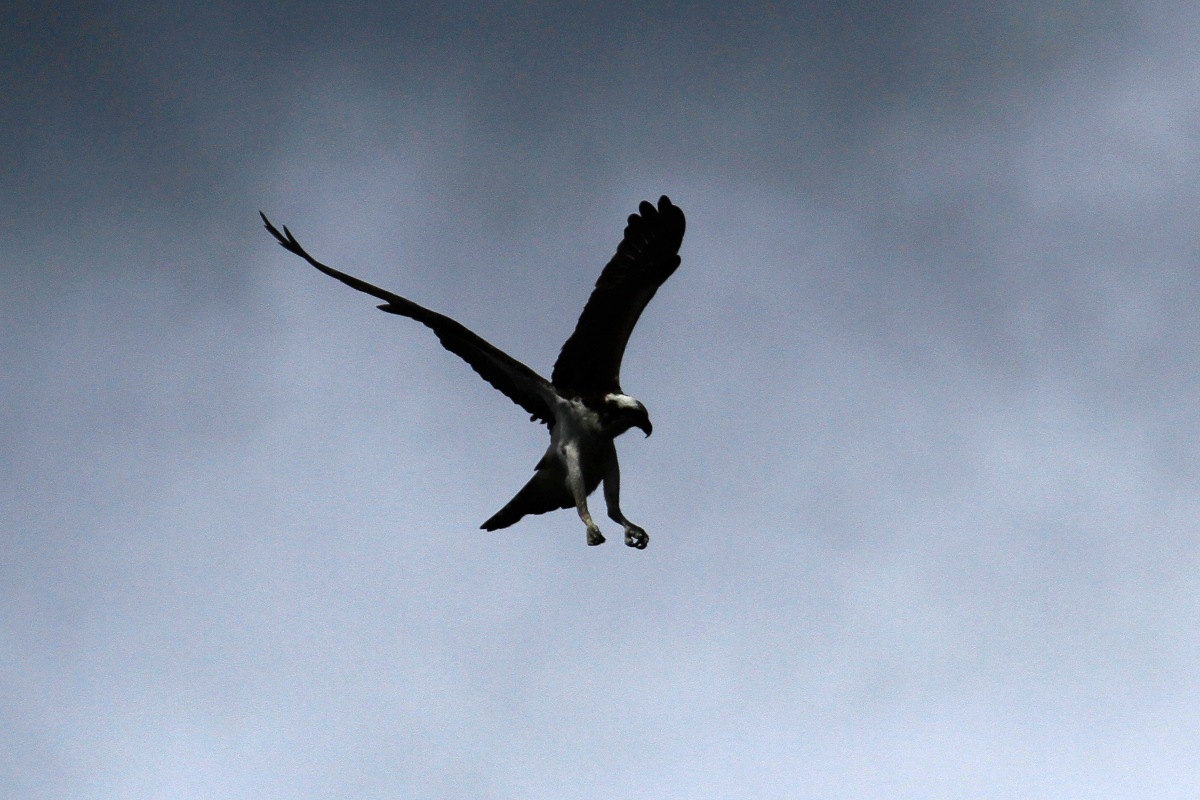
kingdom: Animalia
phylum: Chordata
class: Aves
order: Accipitriformes
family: Pandionidae
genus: Pandion
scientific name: Pandion haliaetus
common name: Osprey
